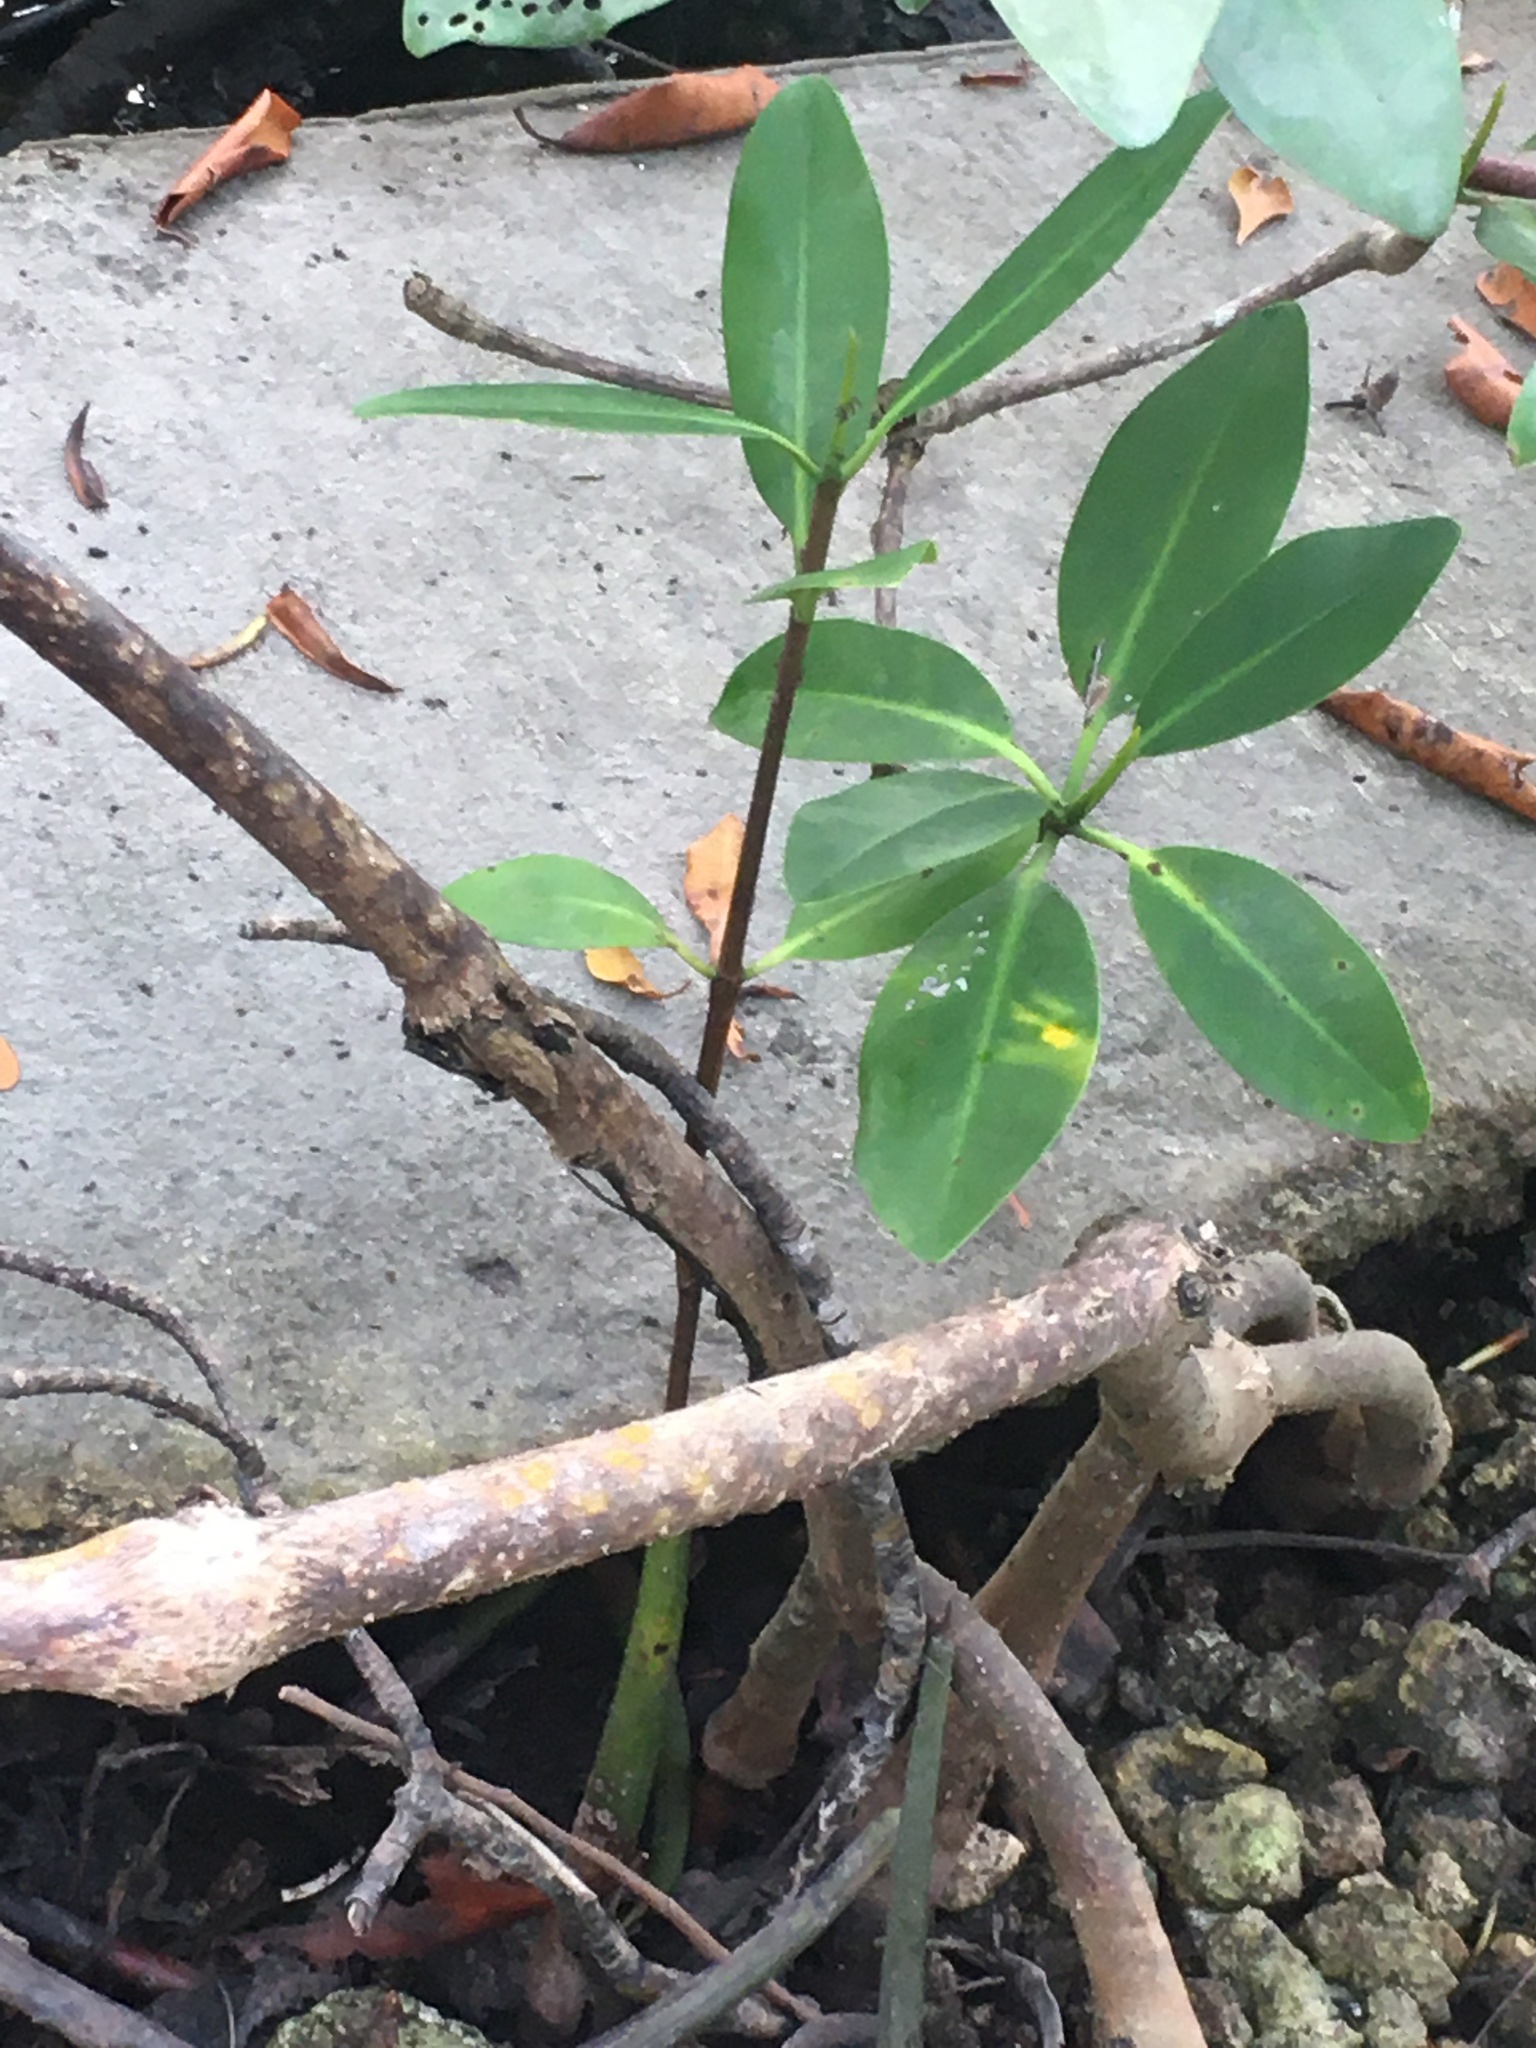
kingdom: Plantae
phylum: Tracheophyta
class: Magnoliopsida
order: Malpighiales
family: Rhizophoraceae
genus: Rhizophora
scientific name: Rhizophora mangle
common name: Red mangrove
